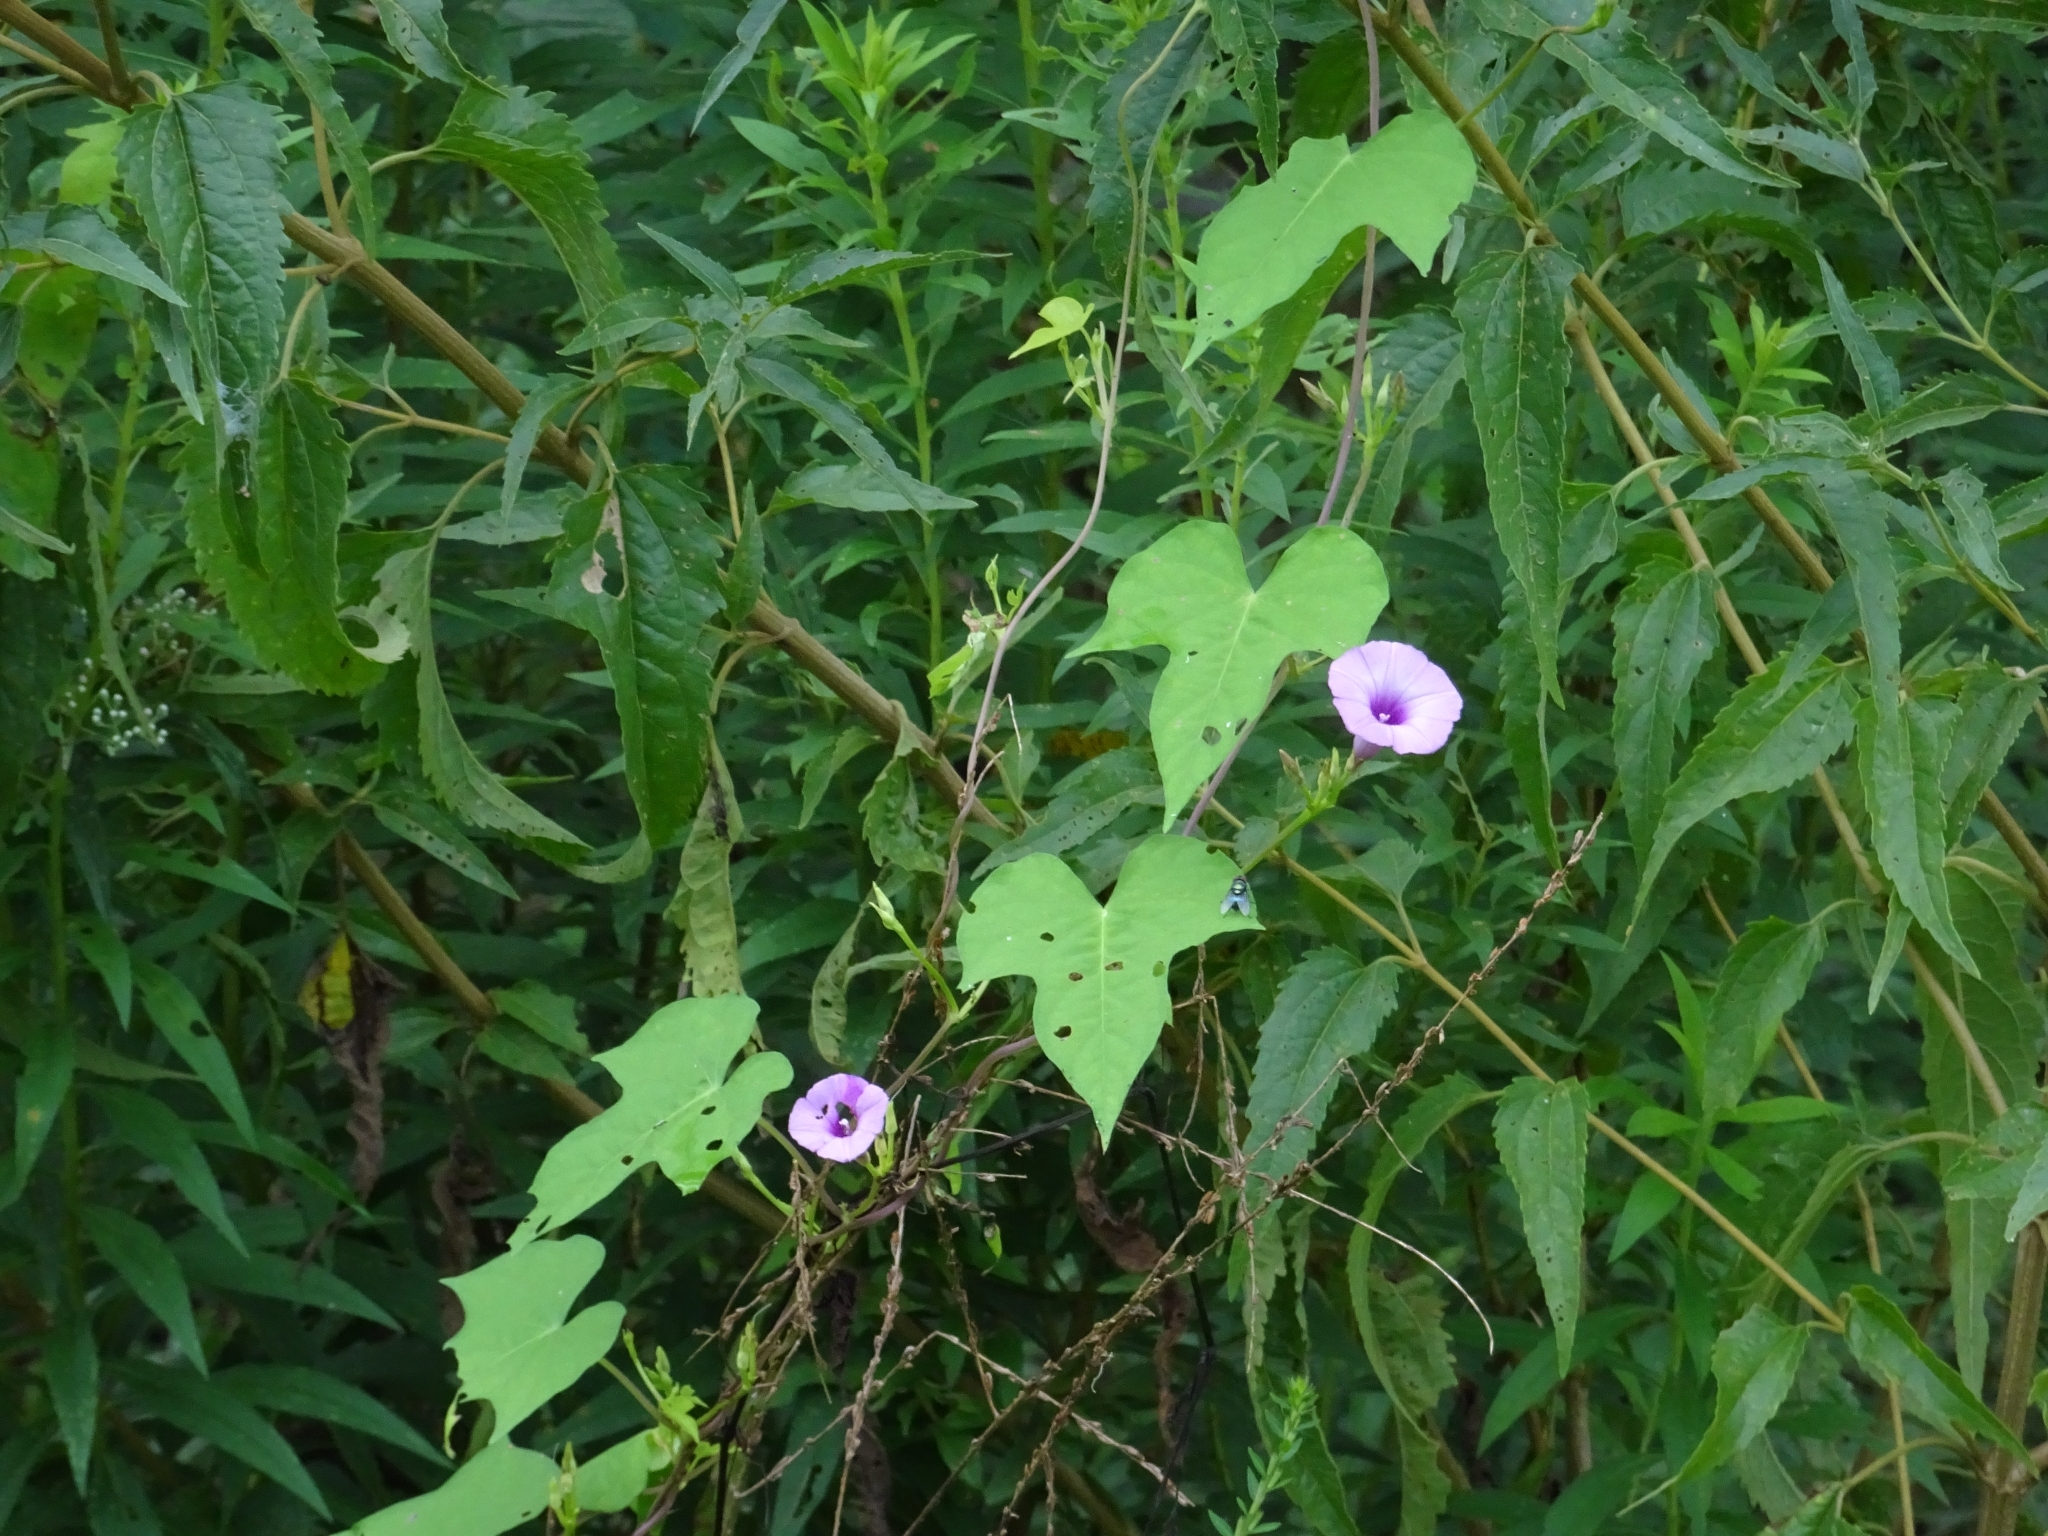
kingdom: Plantae
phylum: Tracheophyta
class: Magnoliopsida
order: Solanales
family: Convolvulaceae
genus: Ipomoea
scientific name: Ipomoea cordatotriloba
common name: Cotton morning glory
